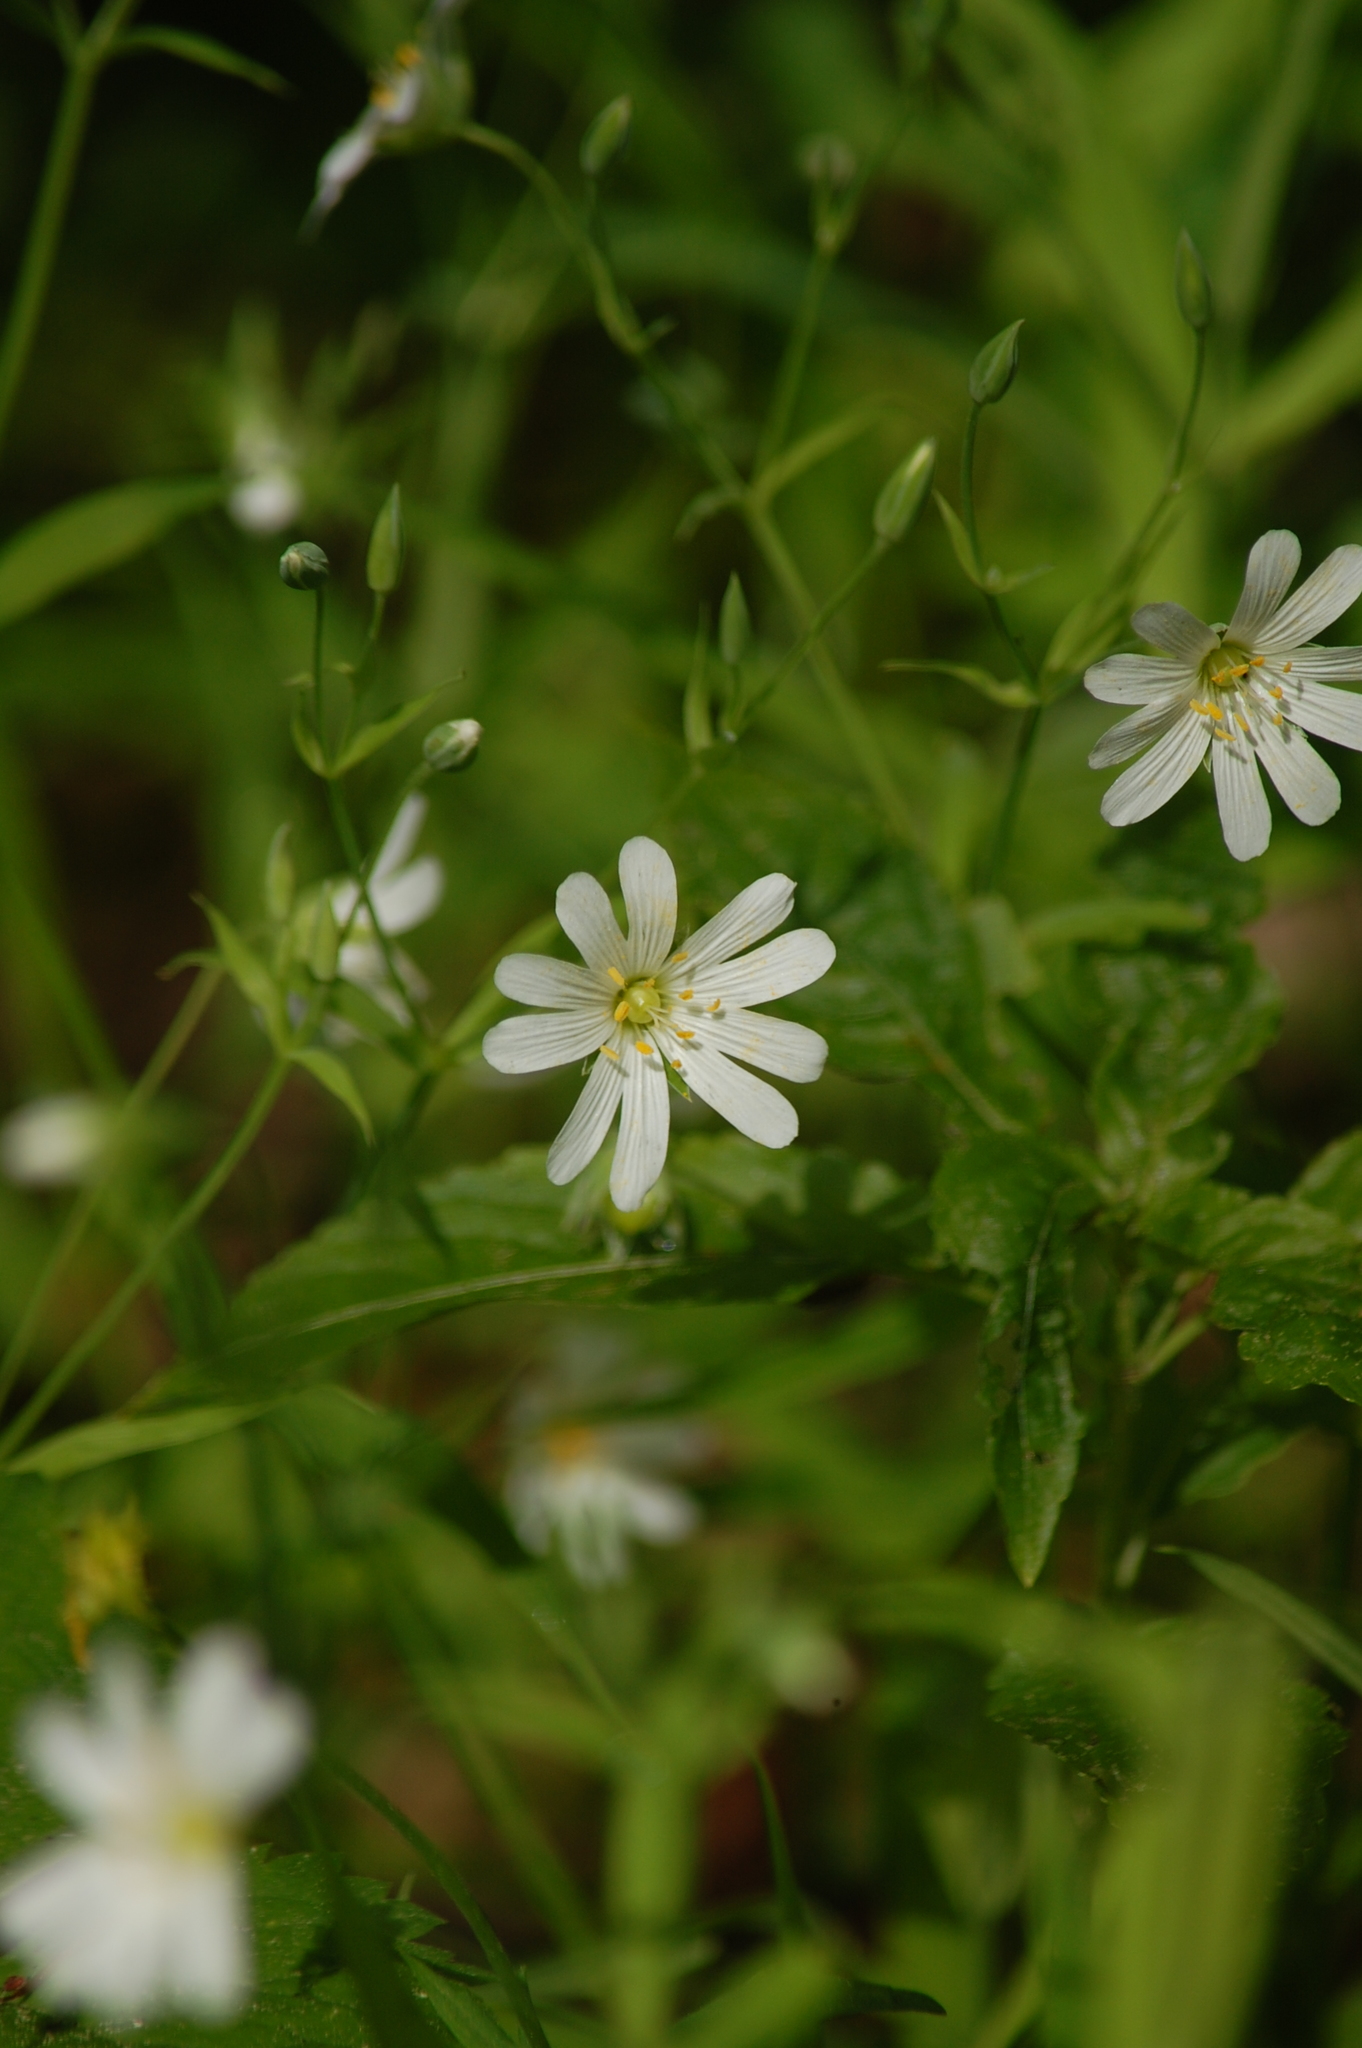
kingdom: Plantae
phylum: Tracheophyta
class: Magnoliopsida
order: Caryophyllales
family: Caryophyllaceae
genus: Rabelera
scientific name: Rabelera holostea
